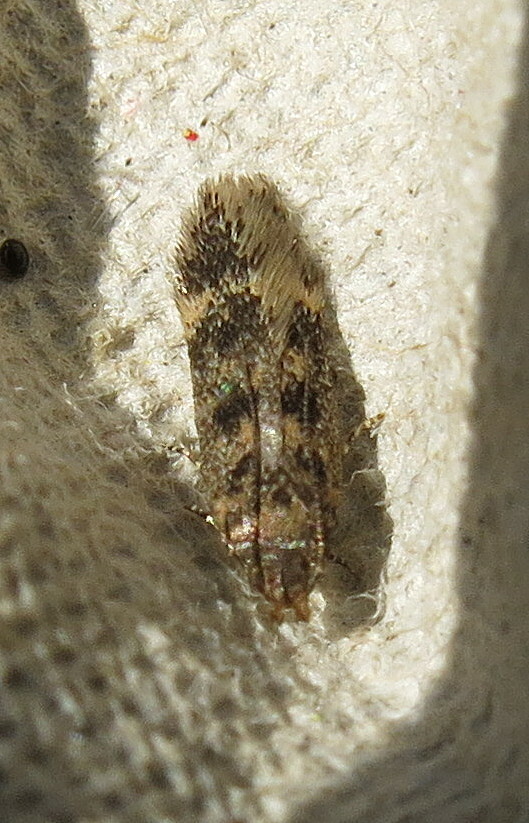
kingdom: Animalia
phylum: Arthropoda
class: Insecta
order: Lepidoptera
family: Gelechiidae
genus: Bryotropha
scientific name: Bryotropha domestica
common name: House groundling
